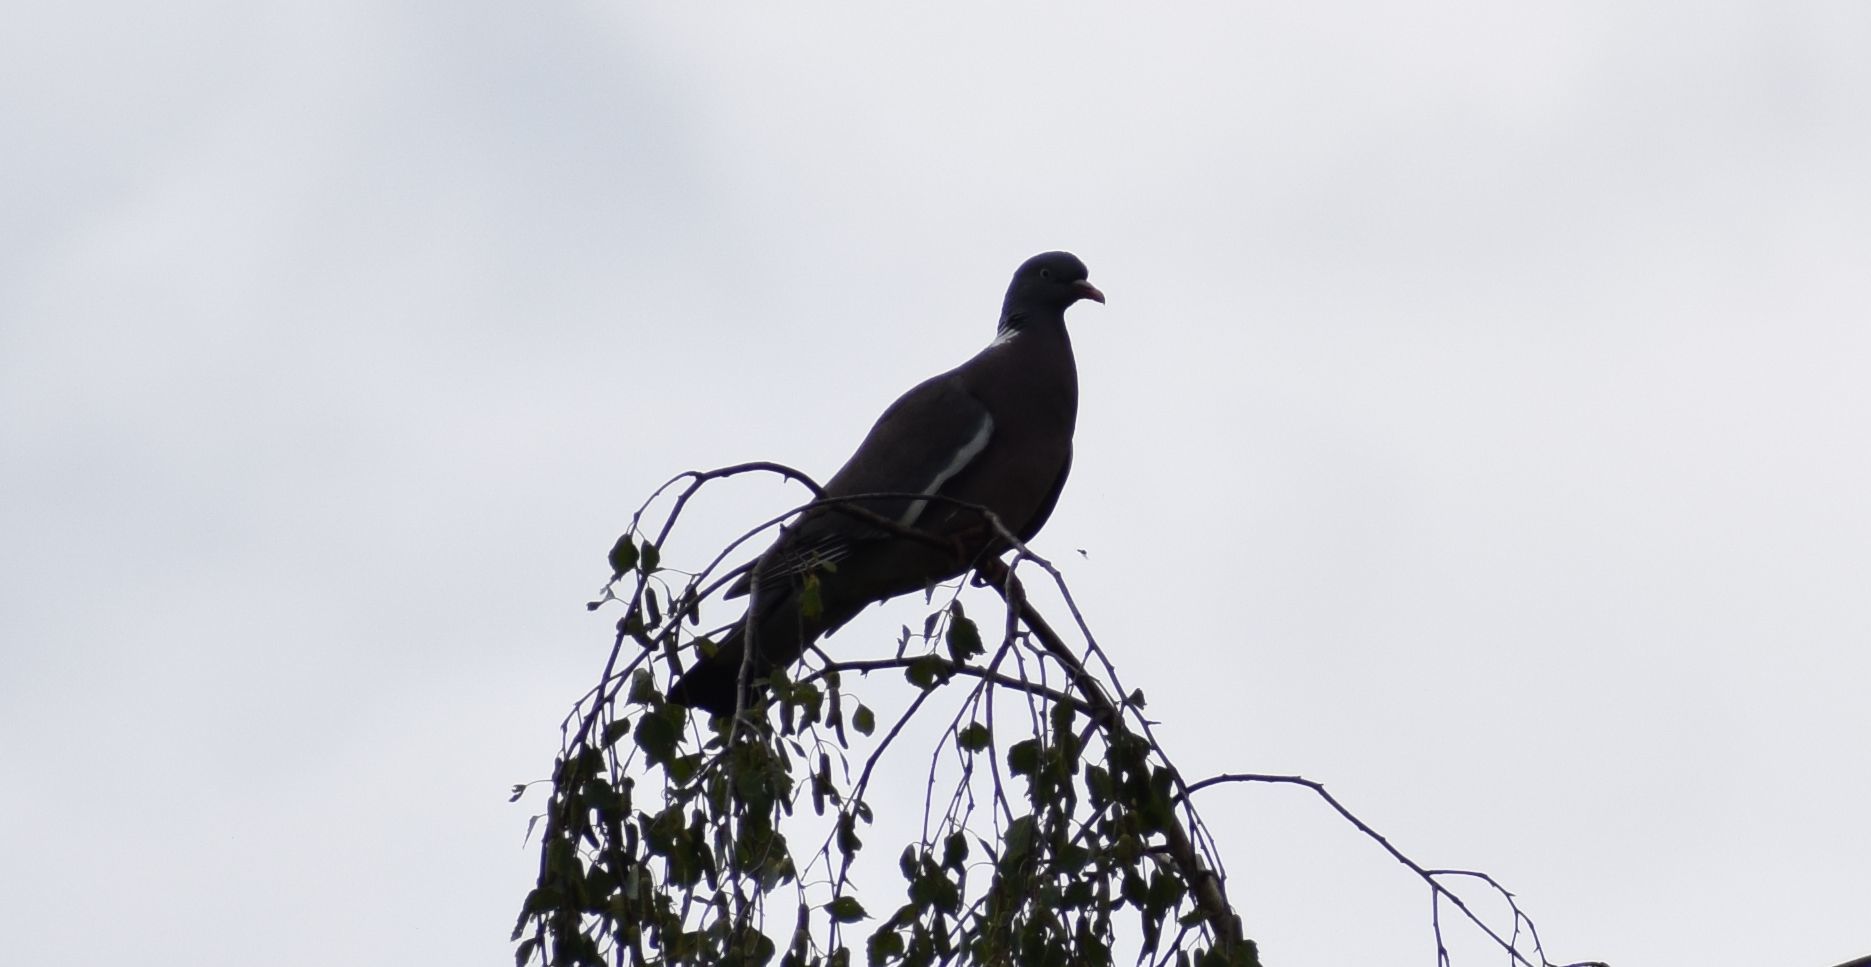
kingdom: Animalia
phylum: Chordata
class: Aves
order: Columbiformes
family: Columbidae
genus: Columba
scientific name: Columba palumbus
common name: Common wood pigeon
